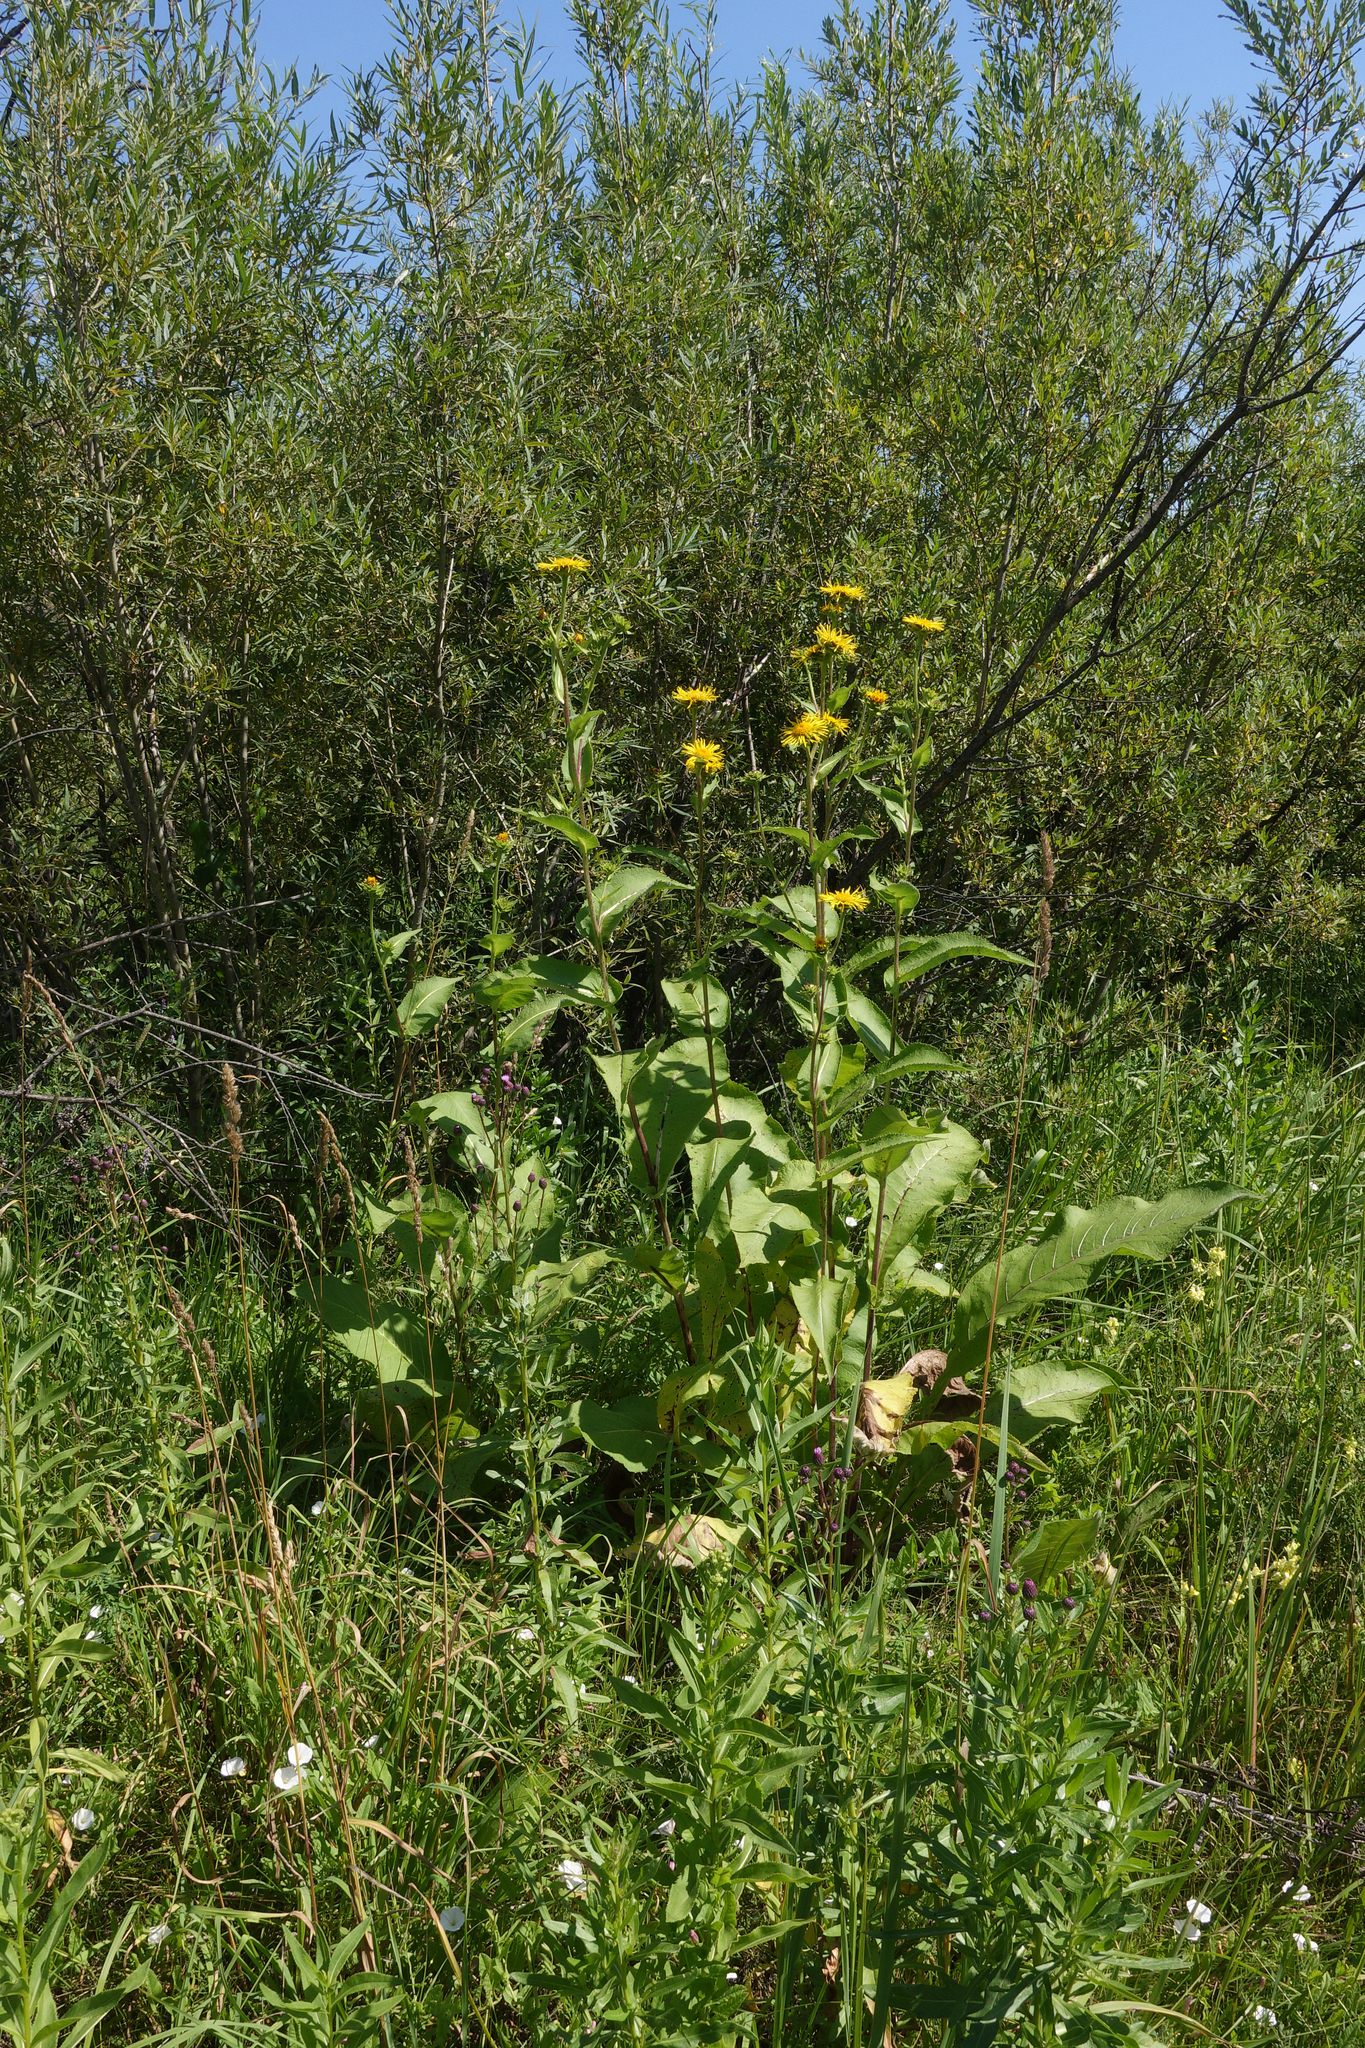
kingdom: Plantae
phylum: Tracheophyta
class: Magnoliopsida
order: Asterales
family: Asteraceae
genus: Inula
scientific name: Inula helenium
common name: Elecampane
